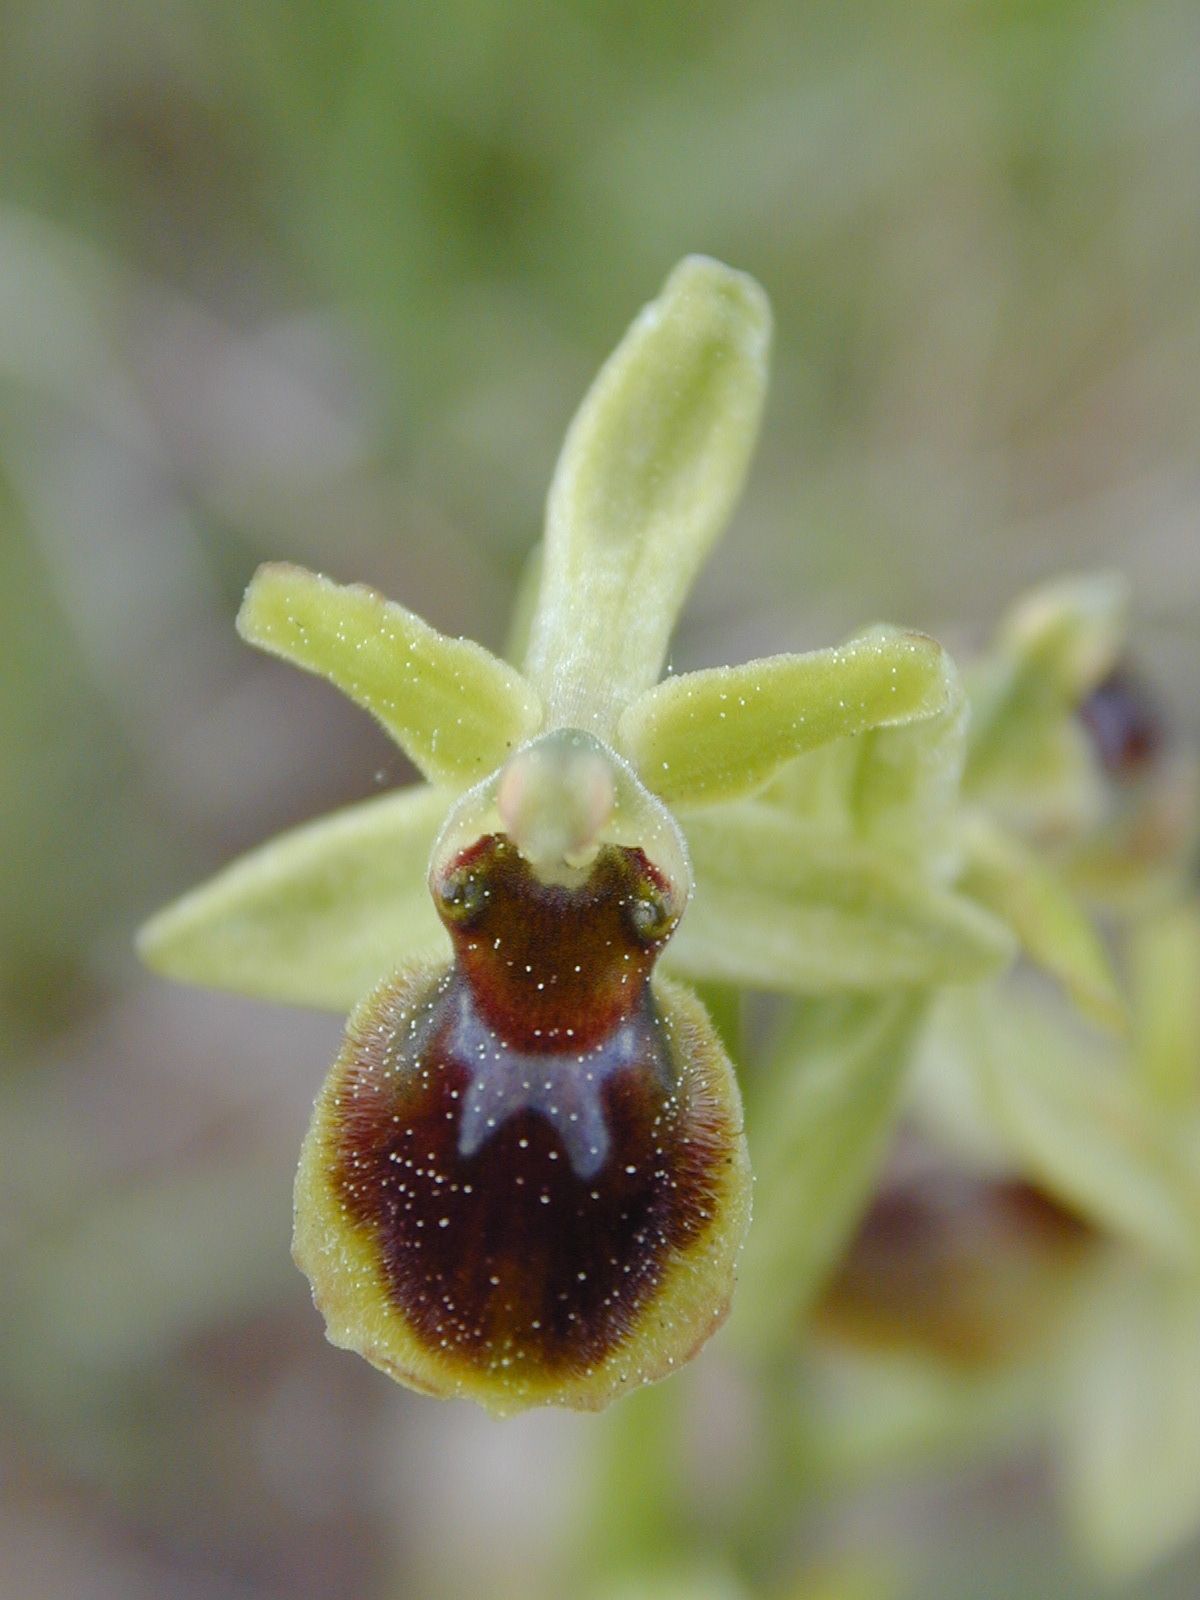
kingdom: Plantae
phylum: Tracheophyta
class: Liliopsida
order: Asparagales
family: Orchidaceae
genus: Ophrys
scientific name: Ophrys araneola
